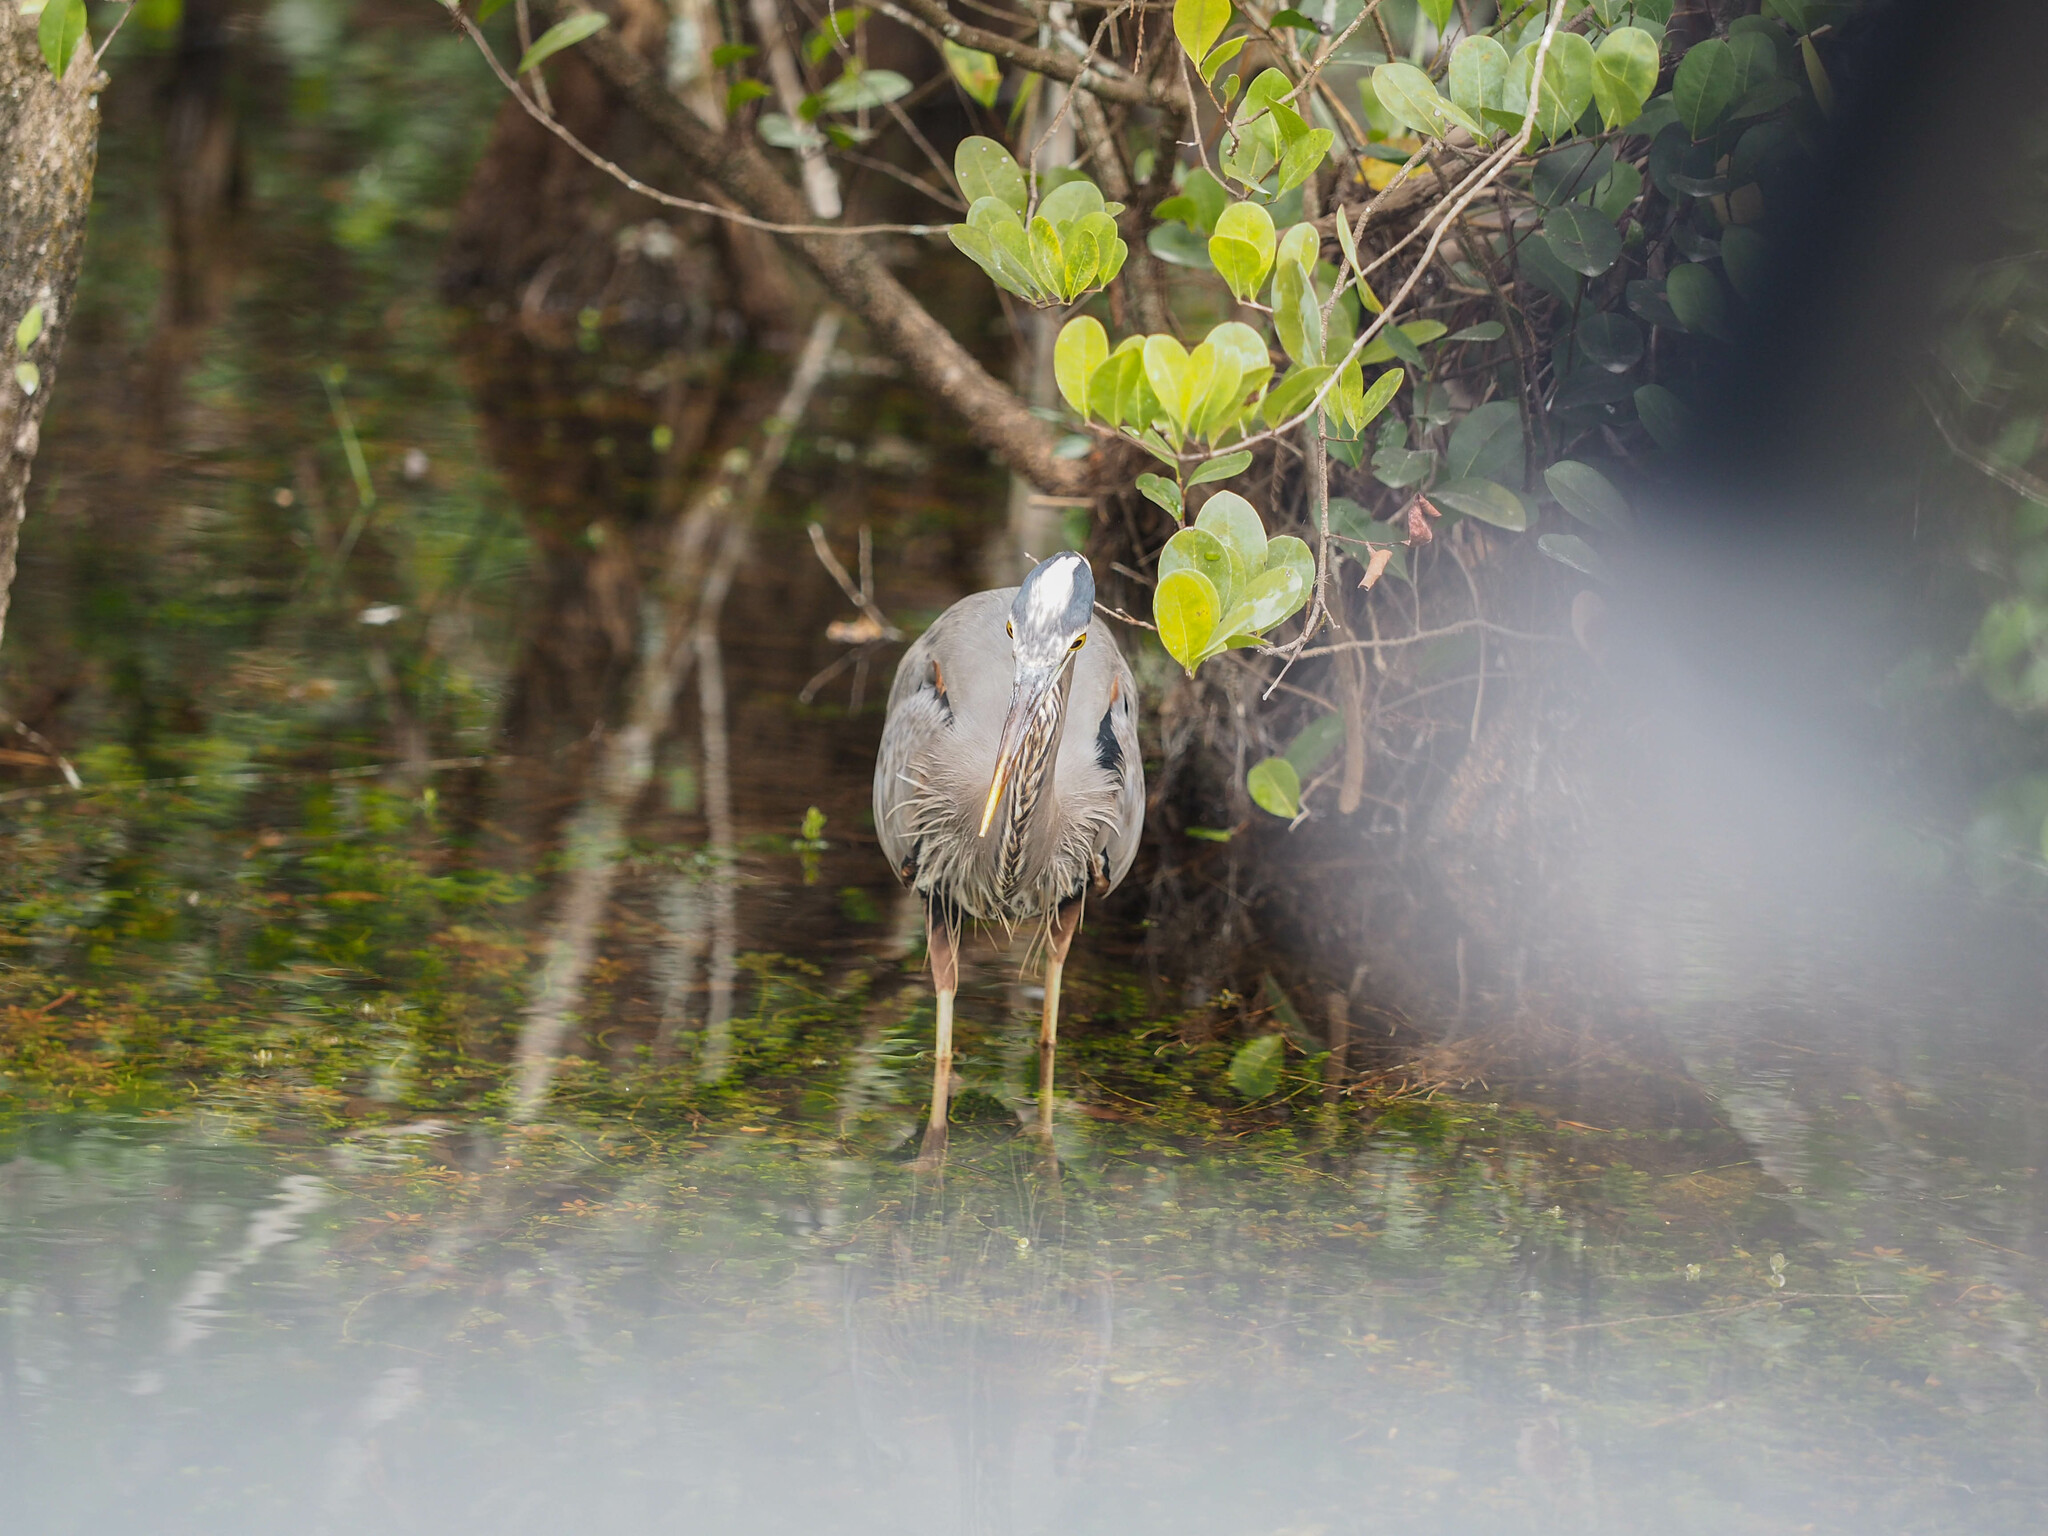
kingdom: Animalia
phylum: Chordata
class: Aves
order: Pelecaniformes
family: Ardeidae
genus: Ardea
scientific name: Ardea herodias
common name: Great blue heron
